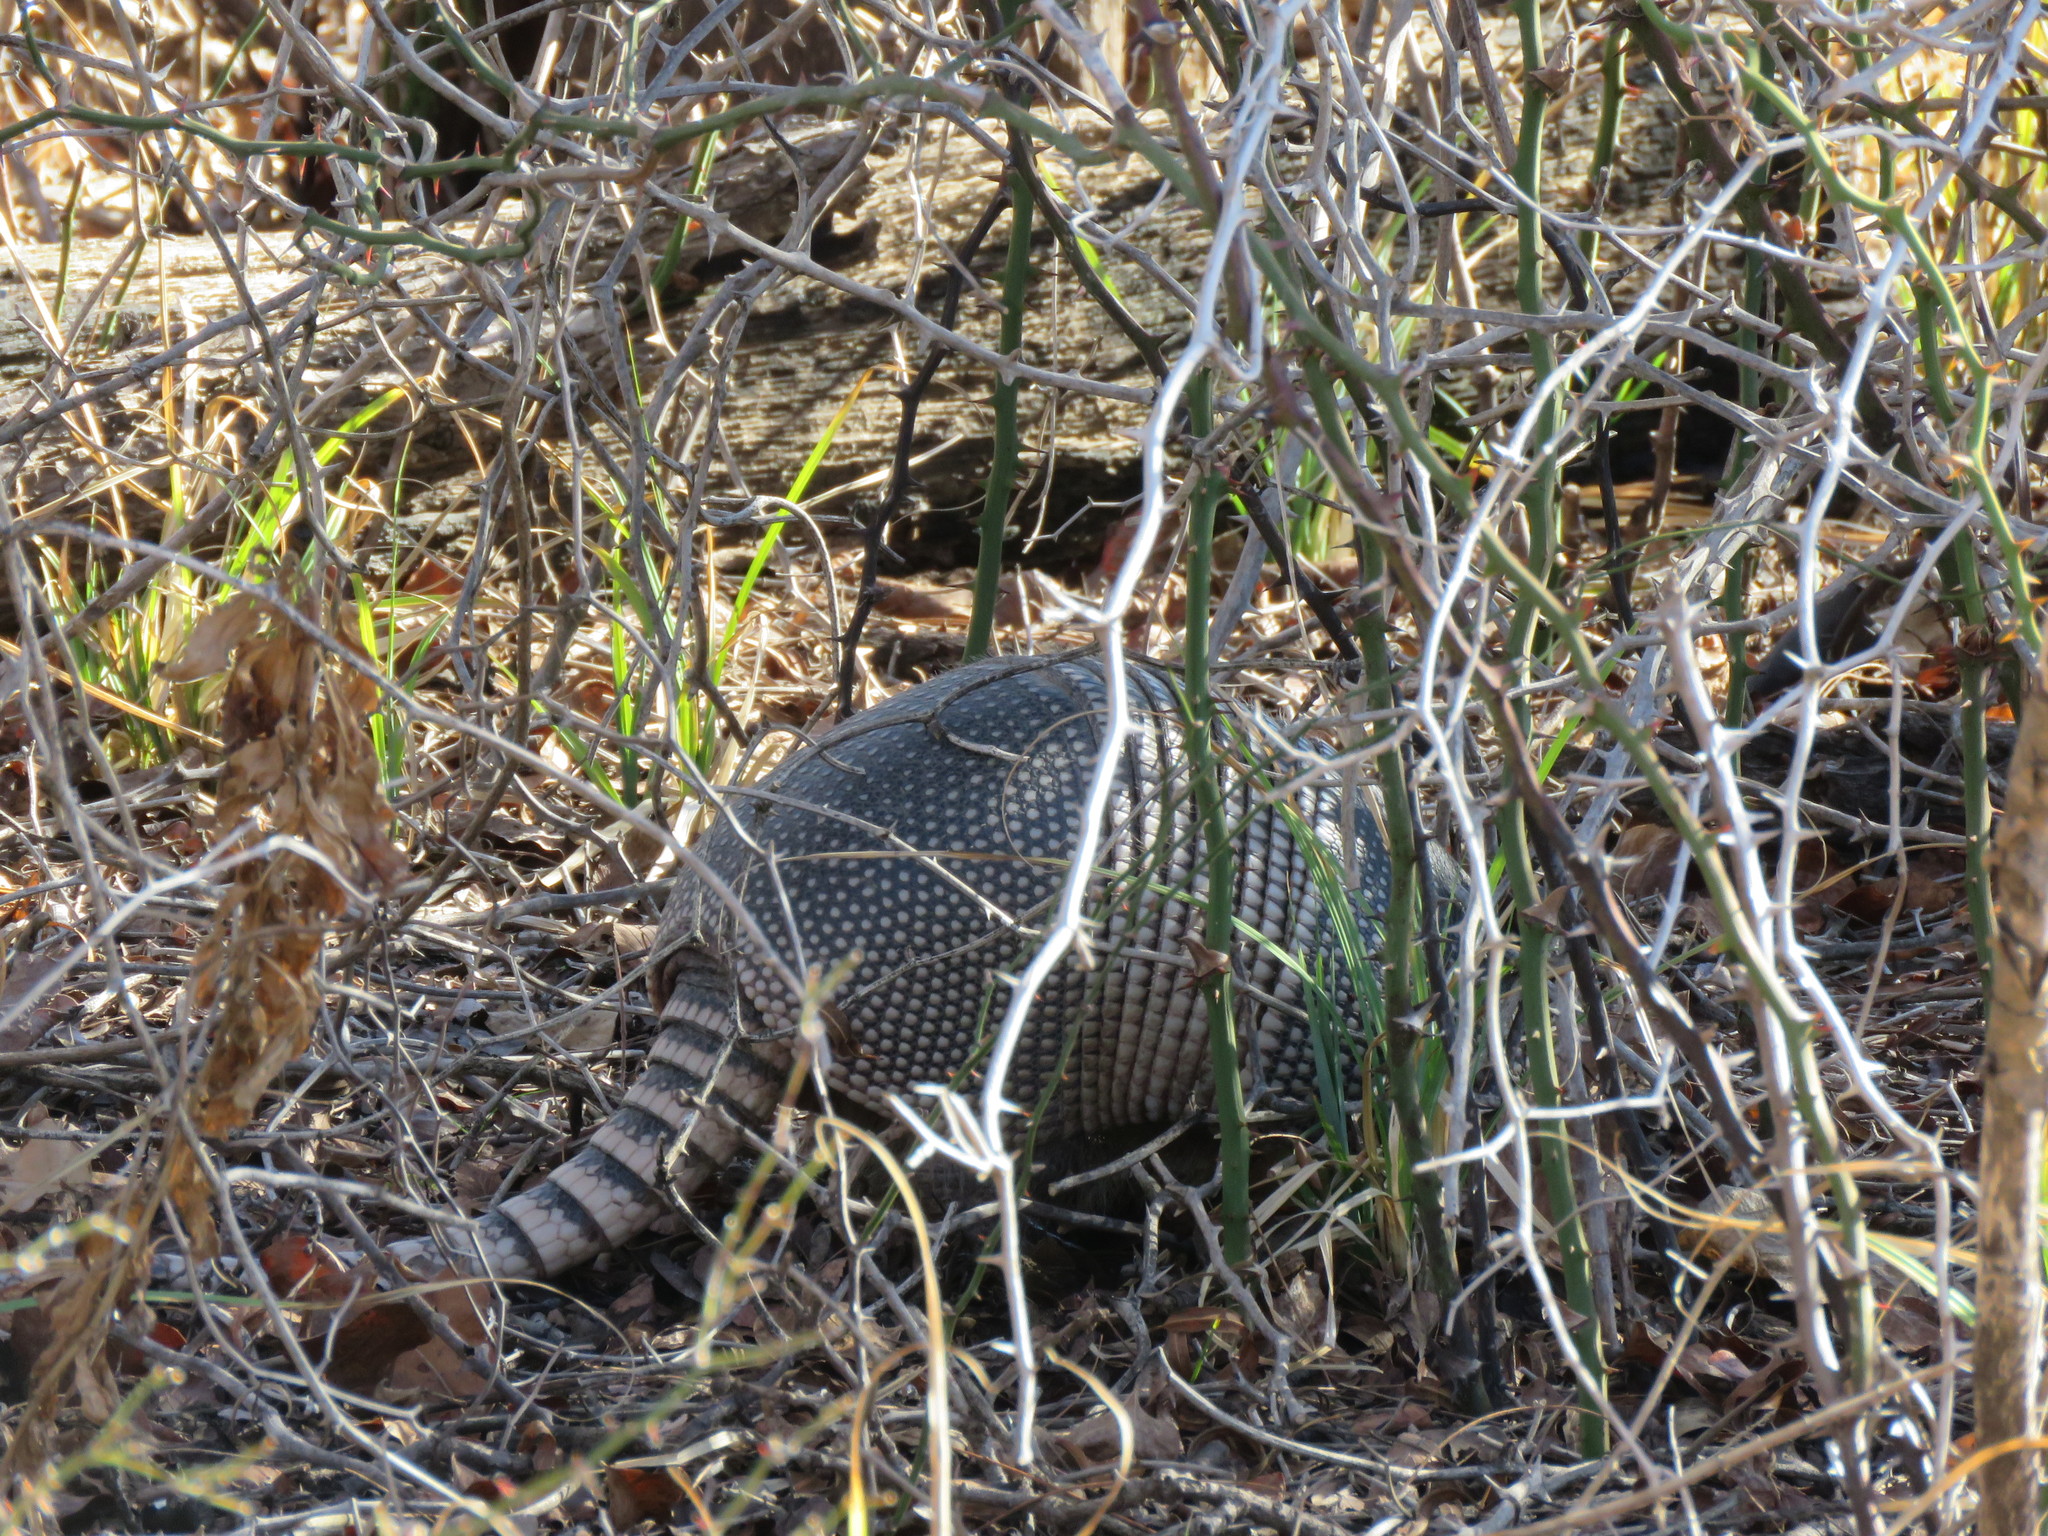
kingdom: Animalia
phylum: Chordata
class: Mammalia
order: Cingulata
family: Dasypodidae
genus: Dasypus
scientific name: Dasypus novemcinctus
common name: Nine-banded armadillo
